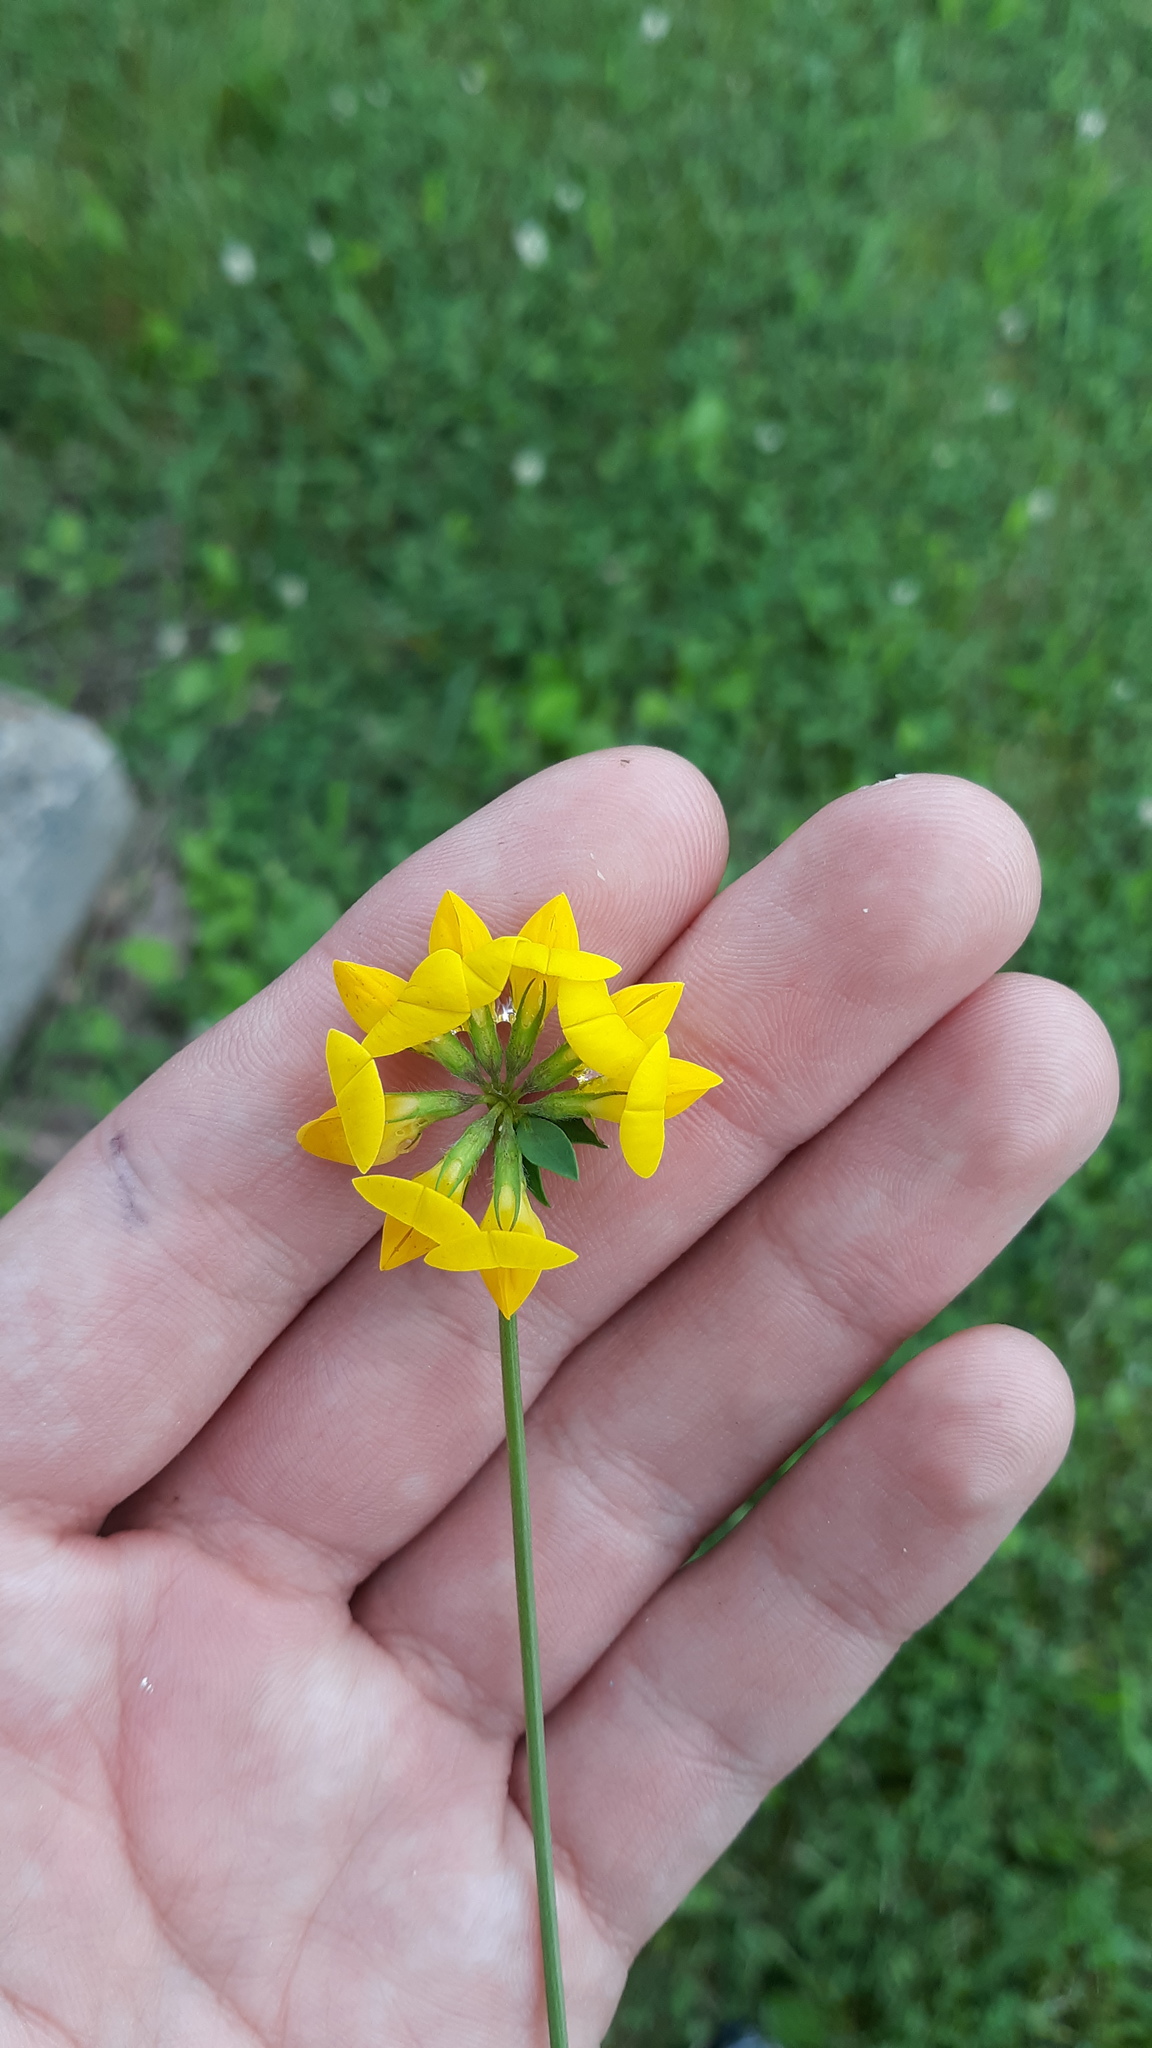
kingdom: Plantae
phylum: Tracheophyta
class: Magnoliopsida
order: Fabales
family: Fabaceae
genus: Lotus
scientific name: Lotus corniculatus
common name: Common bird's-foot-trefoil
